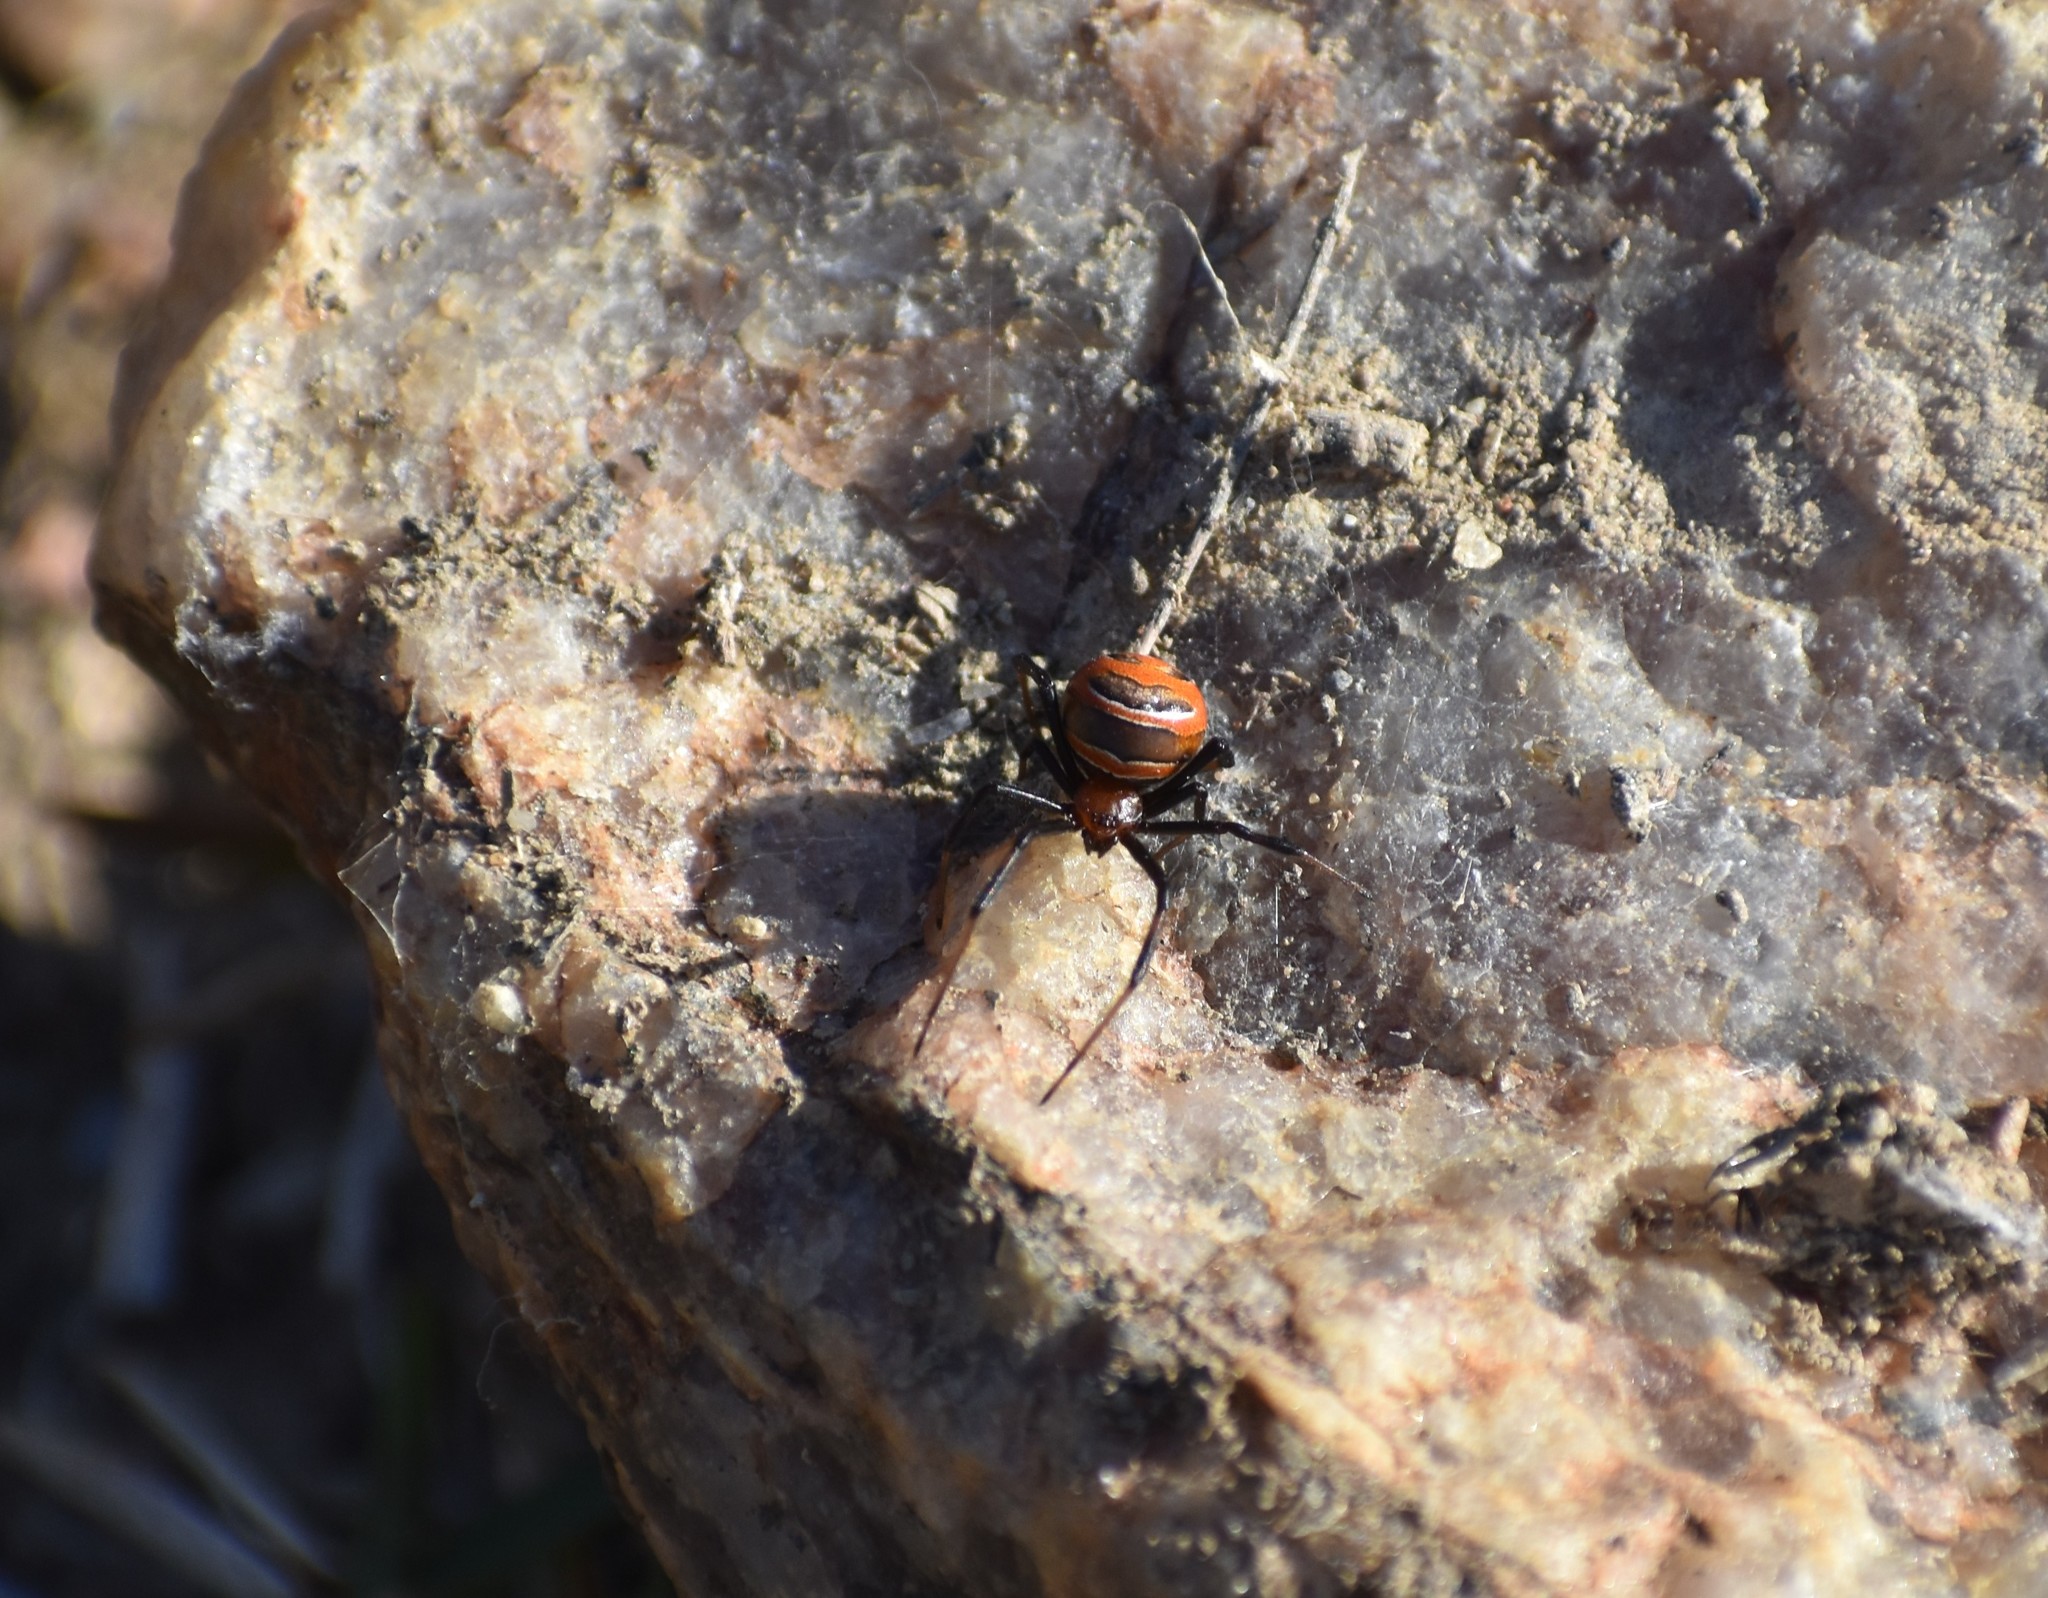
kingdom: Animalia
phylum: Arthropoda
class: Arachnida
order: Araneae
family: Theridiidae
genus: Latrodectus
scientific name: Latrodectus renivulvatus
